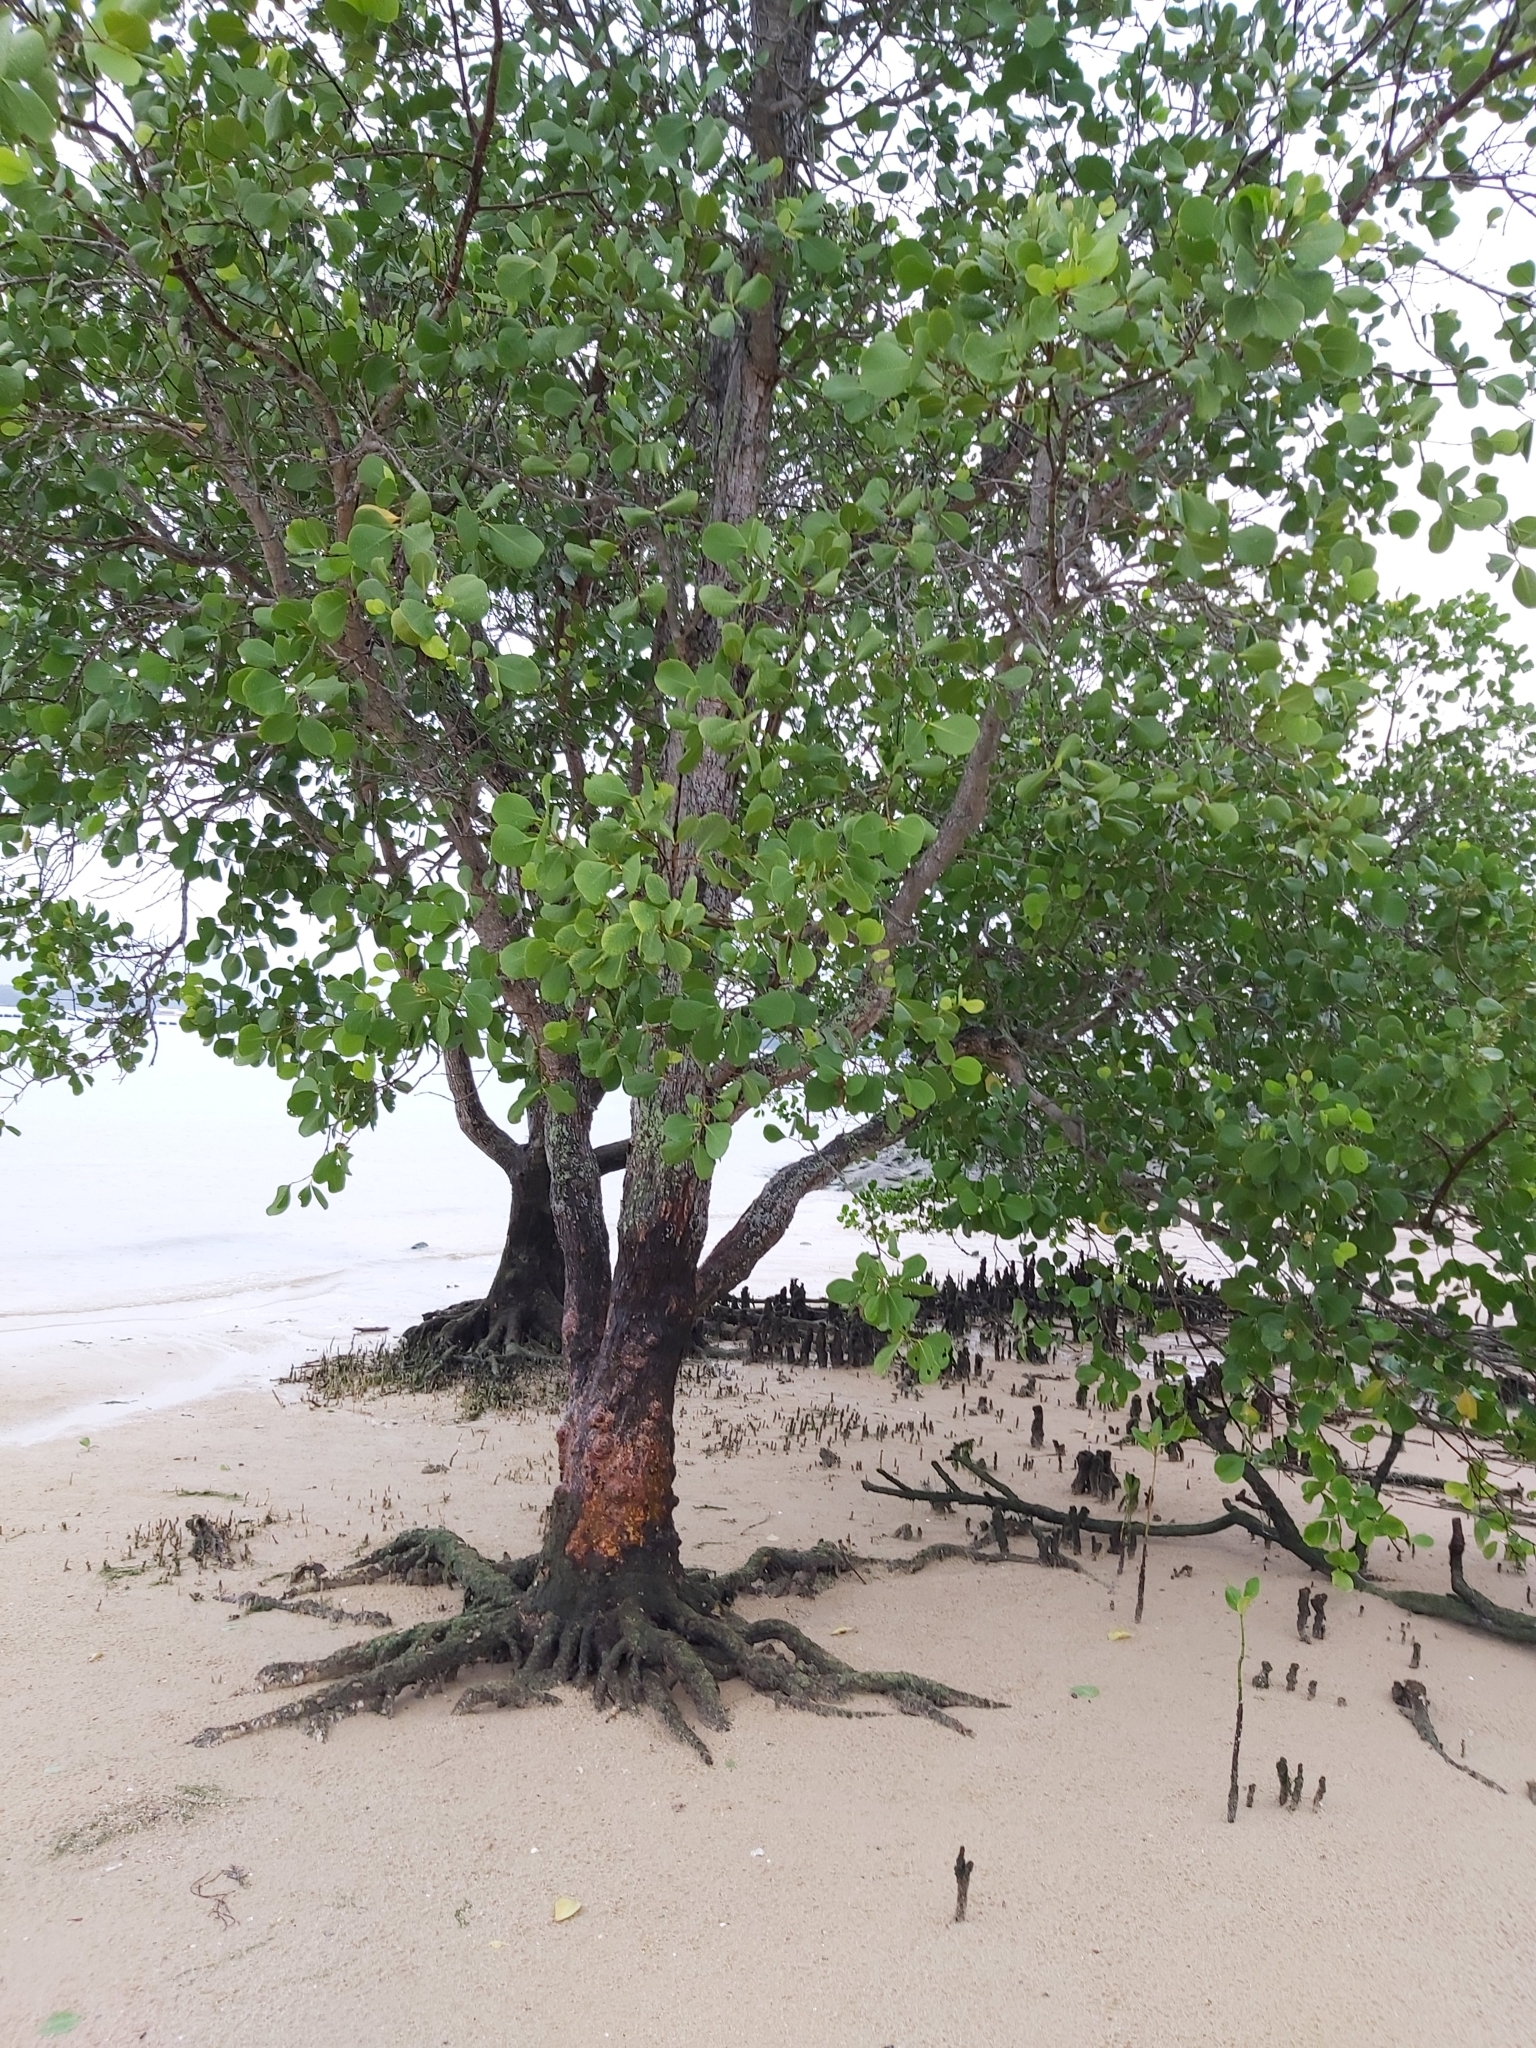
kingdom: Plantae
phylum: Tracheophyta
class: Magnoliopsida
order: Myrtales
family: Lythraceae
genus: Sonneratia
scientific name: Sonneratia alba
